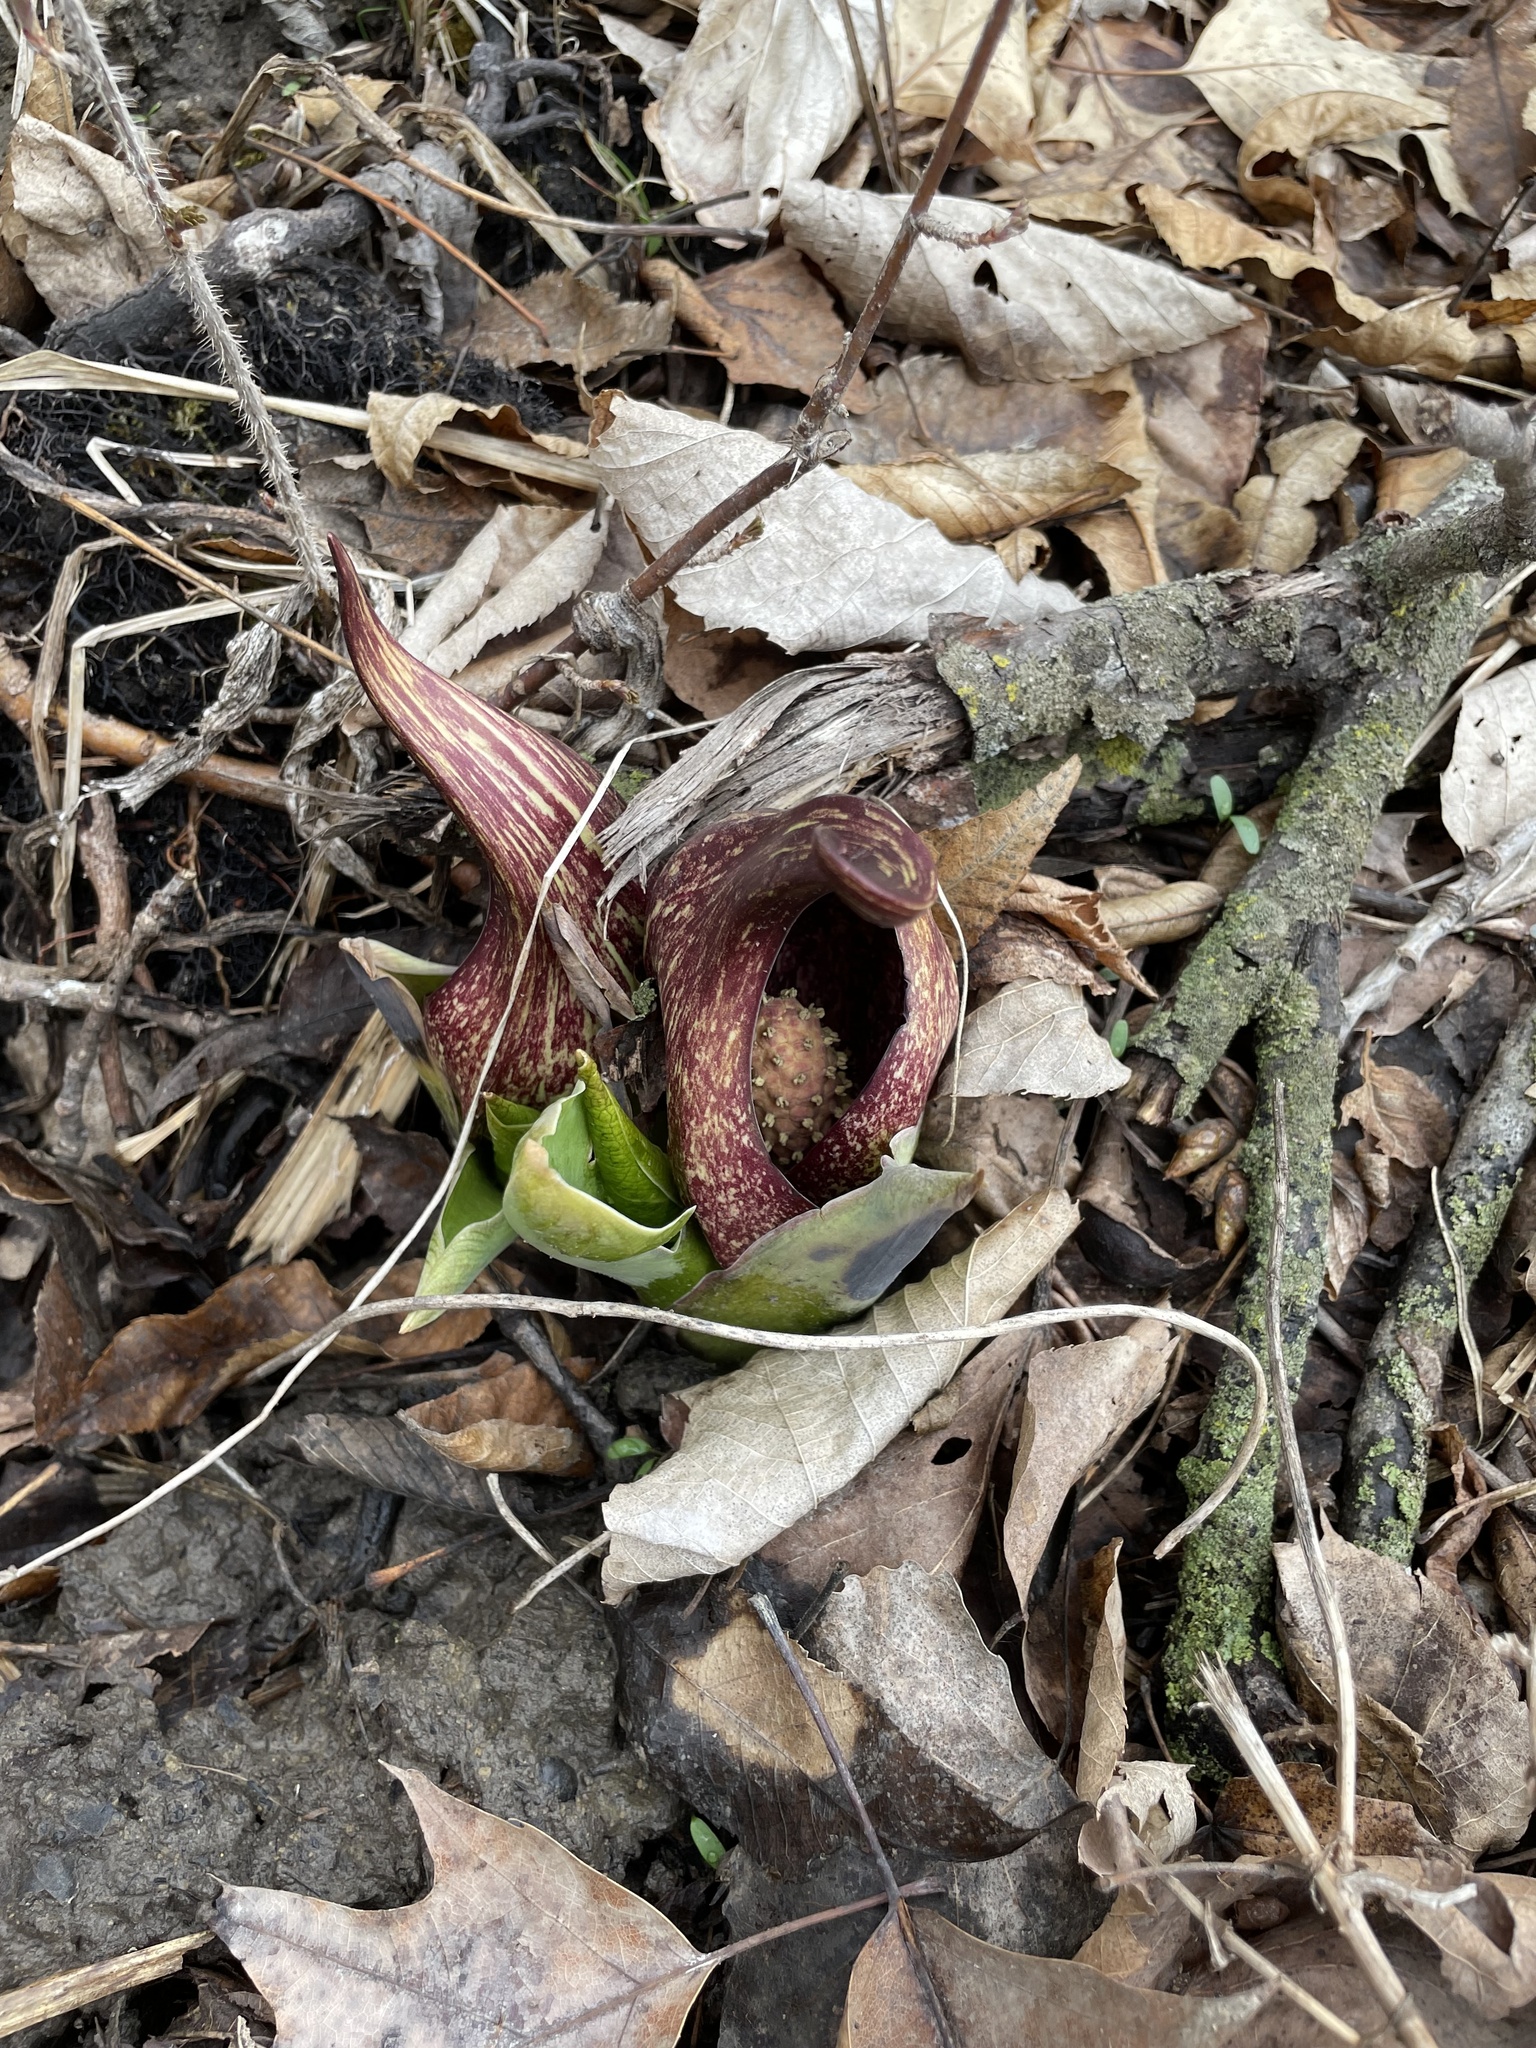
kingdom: Plantae
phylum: Tracheophyta
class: Liliopsida
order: Alismatales
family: Araceae
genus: Symplocarpus
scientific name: Symplocarpus foetidus
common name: Eastern skunk cabbage
